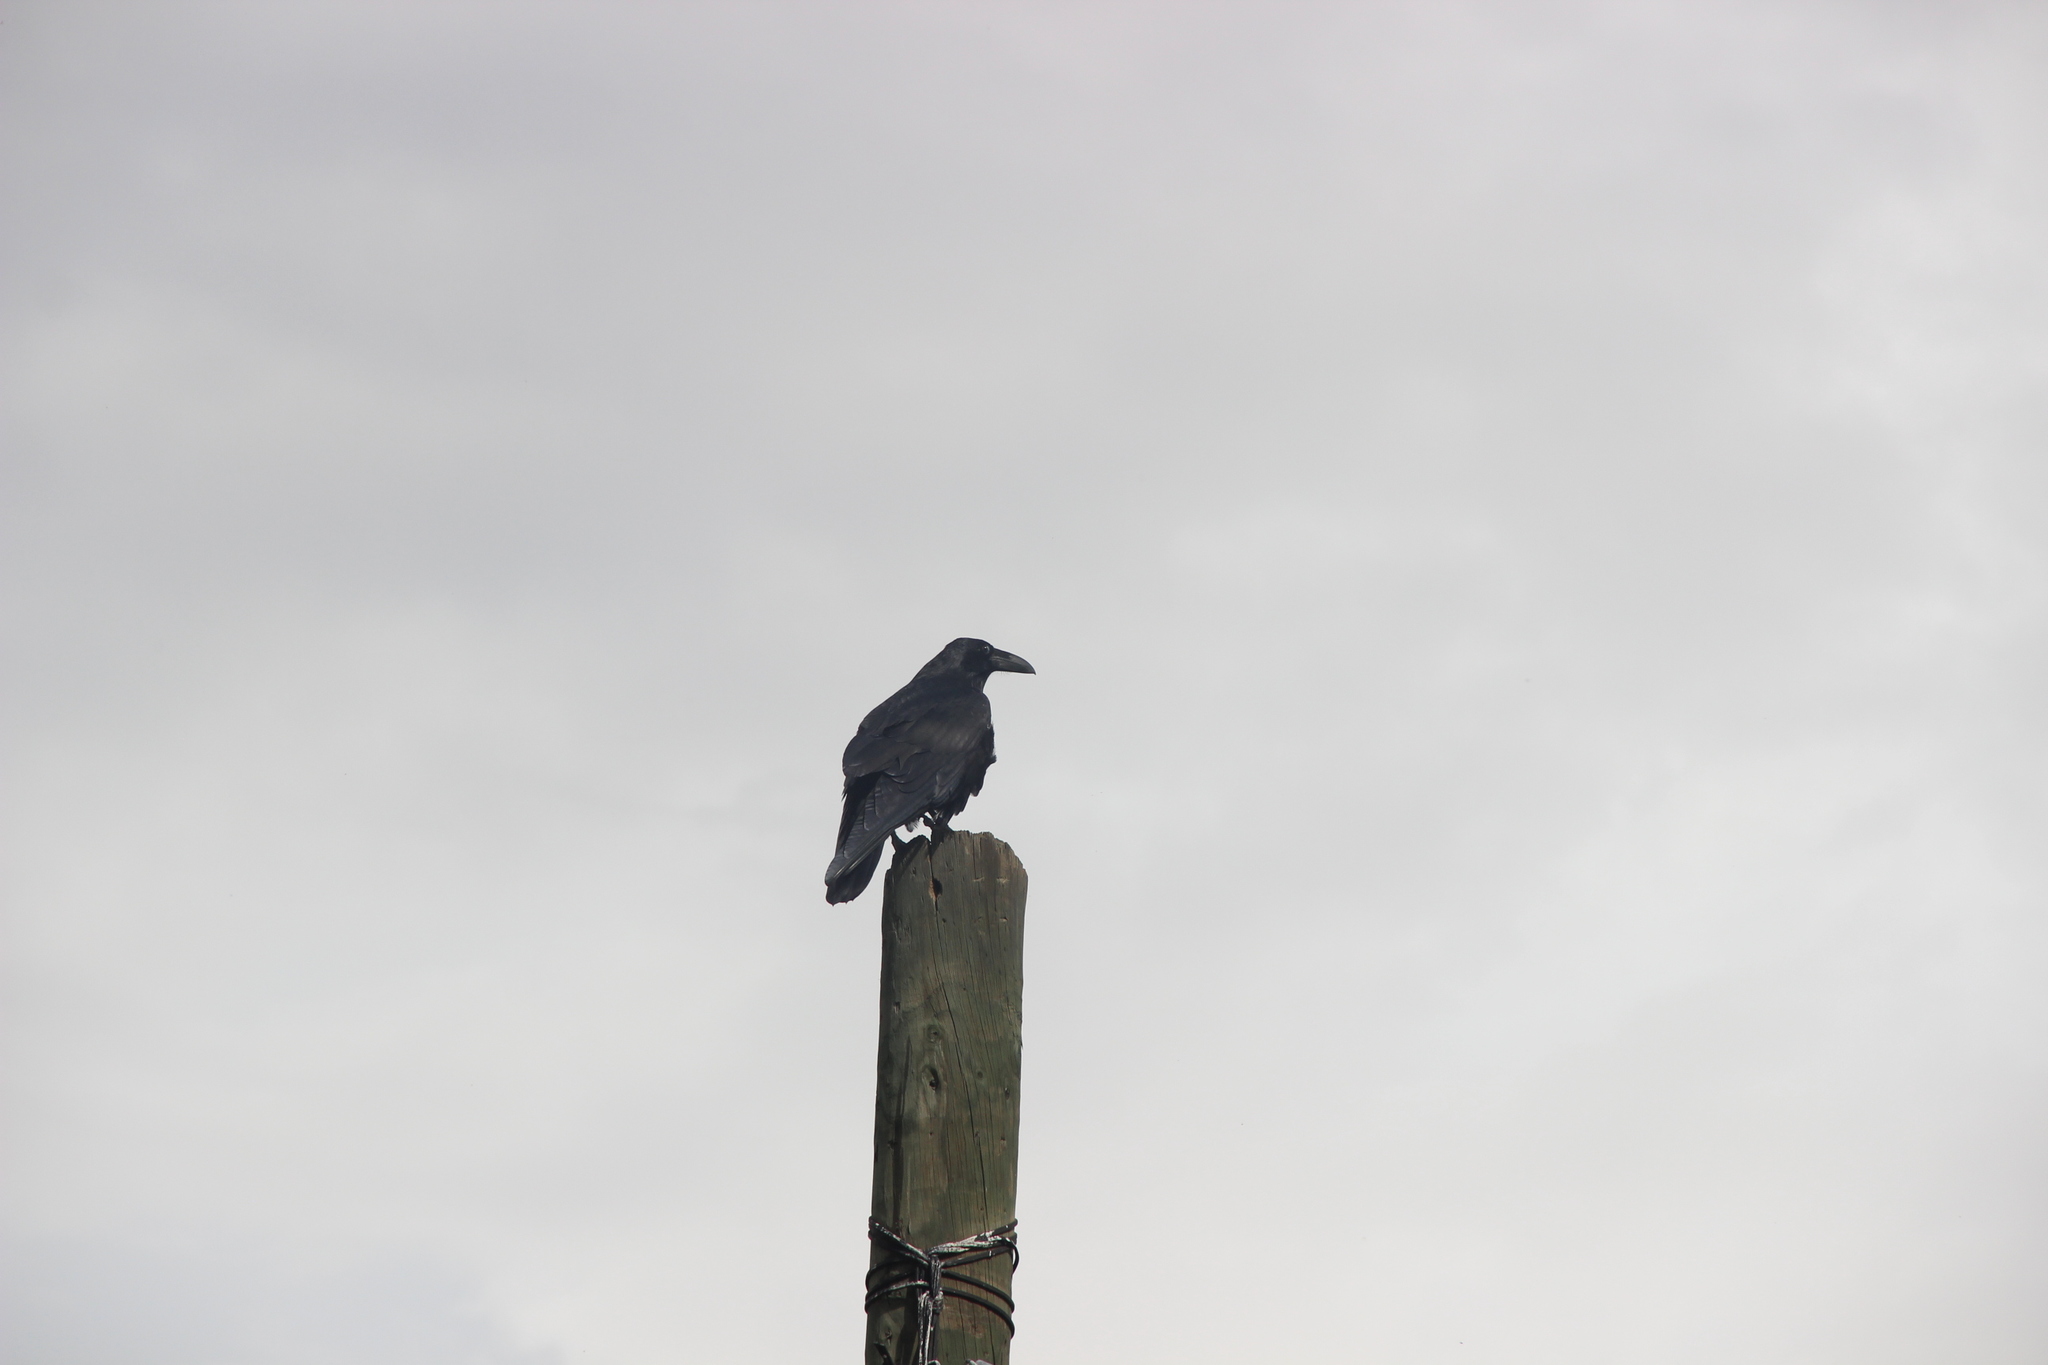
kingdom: Animalia
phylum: Chordata
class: Aves
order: Passeriformes
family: Corvidae
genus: Corvus
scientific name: Corvus corax
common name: Common raven
